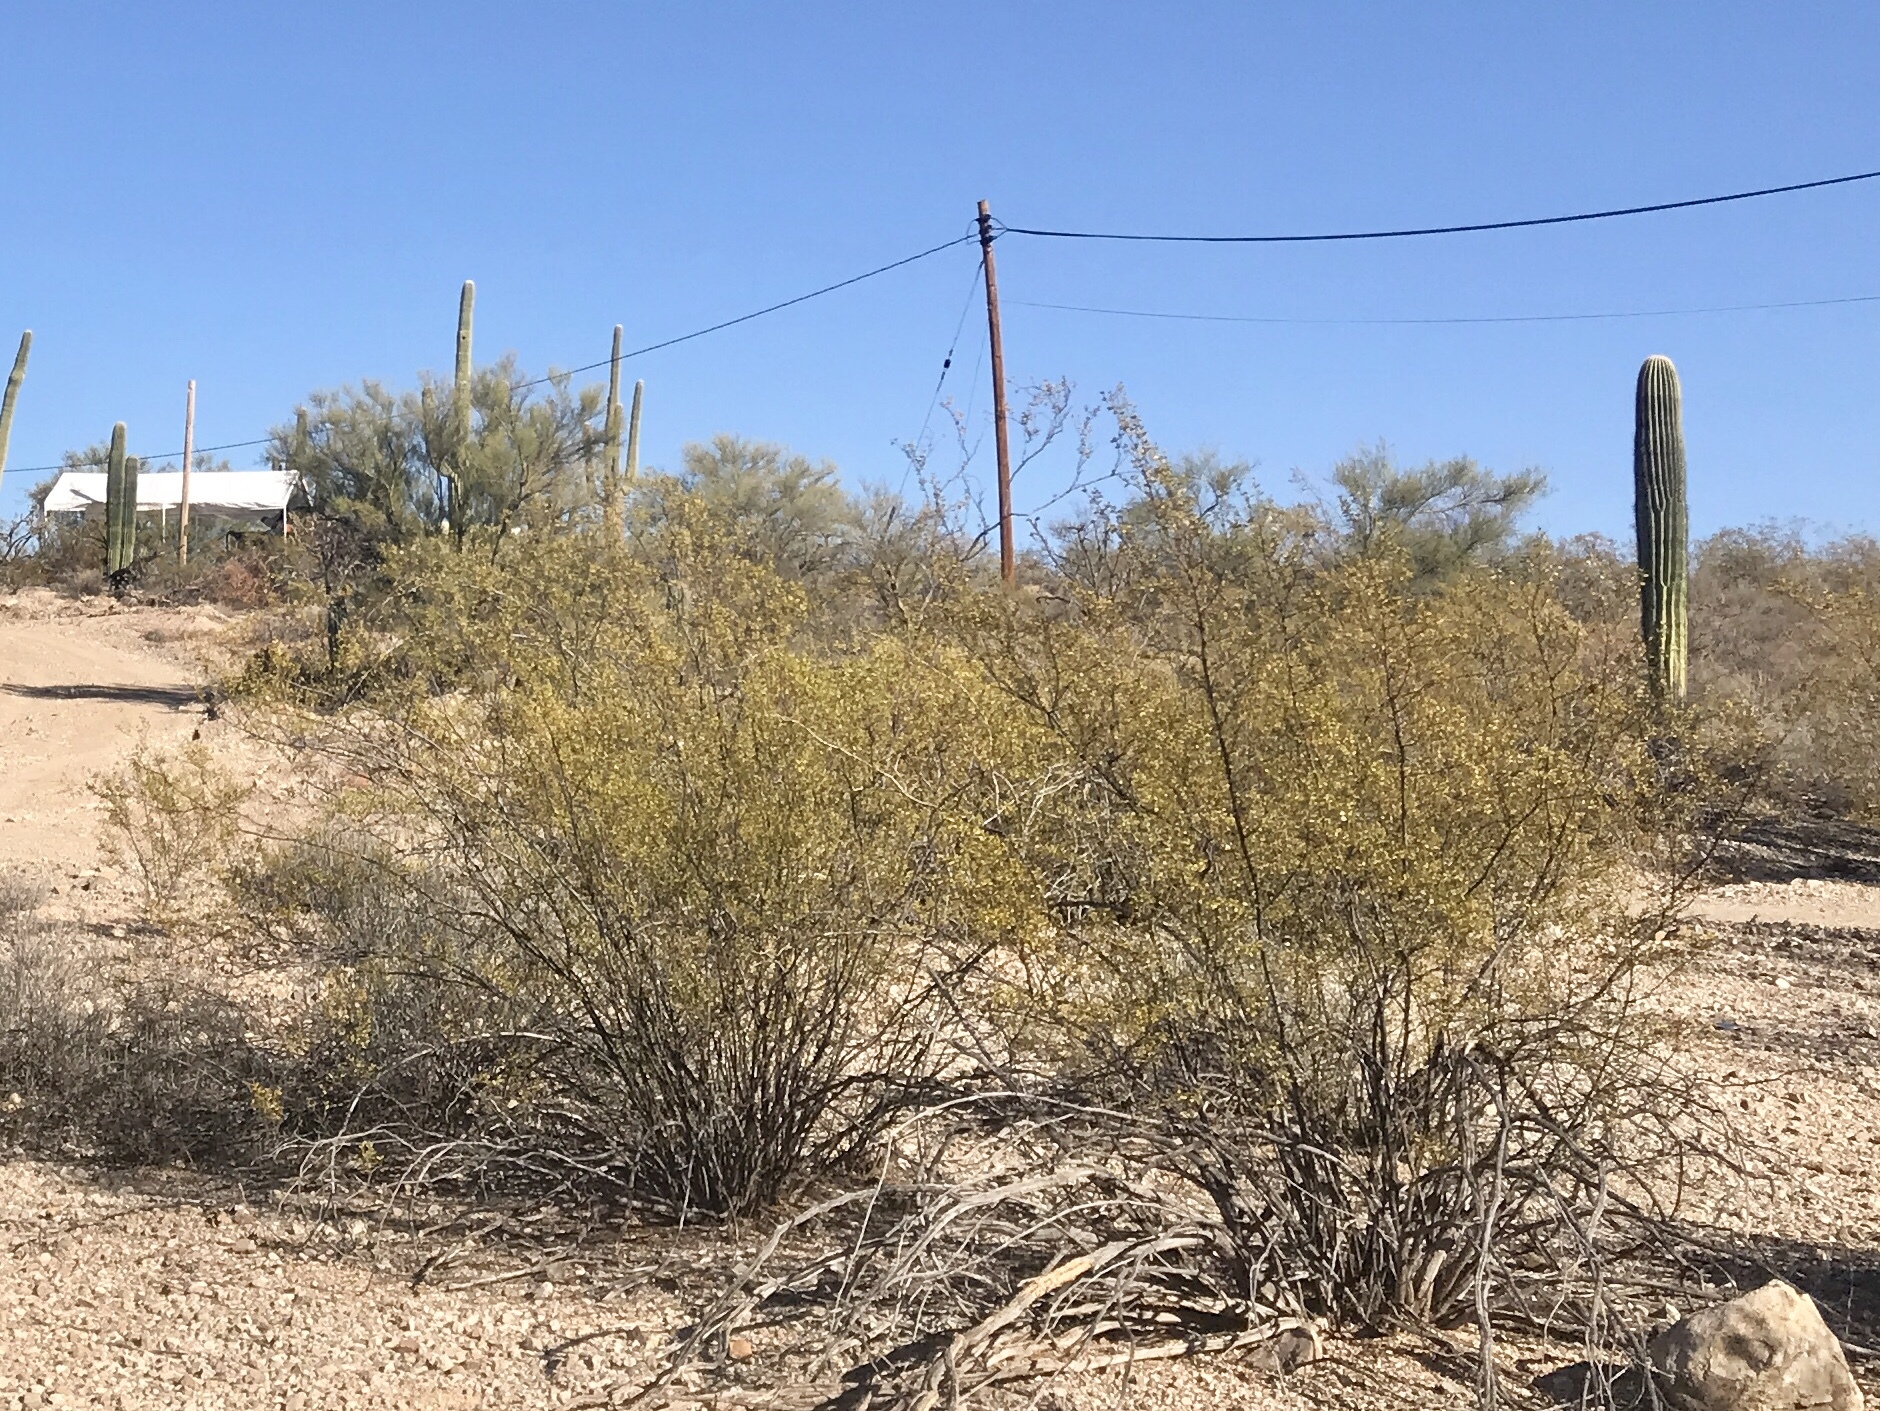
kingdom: Plantae
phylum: Tracheophyta
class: Magnoliopsida
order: Zygophyllales
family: Zygophyllaceae
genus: Larrea
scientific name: Larrea tridentata
